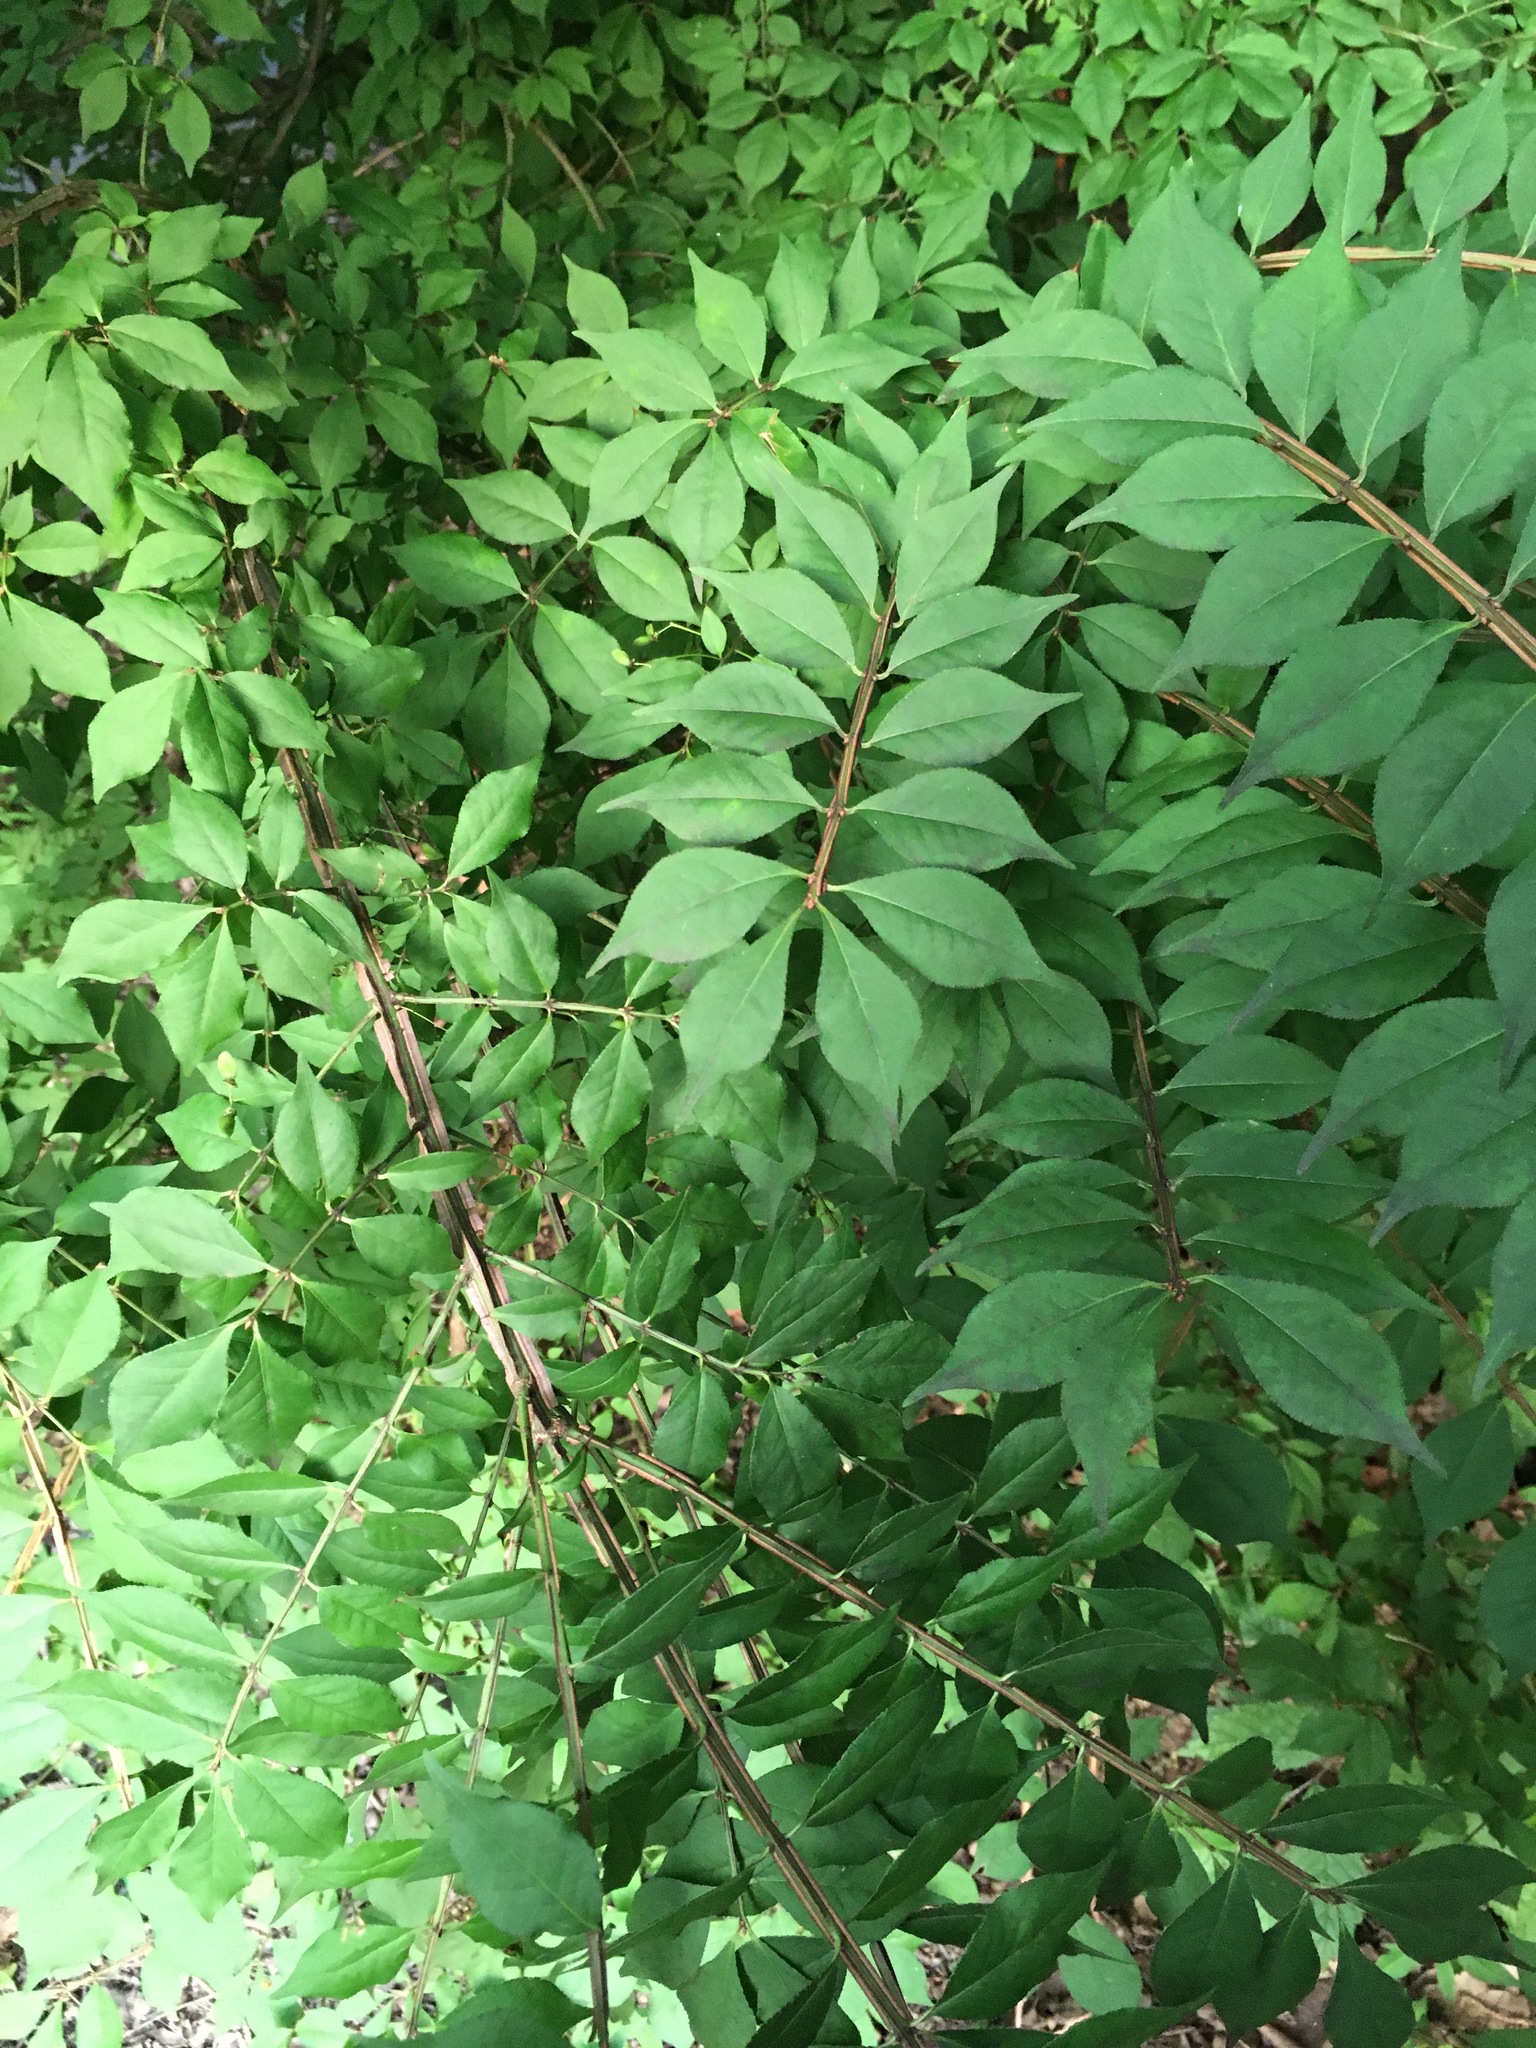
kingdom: Plantae
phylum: Tracheophyta
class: Magnoliopsida
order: Celastrales
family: Celastraceae
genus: Euonymus
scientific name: Euonymus alatus
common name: Winged euonymus
